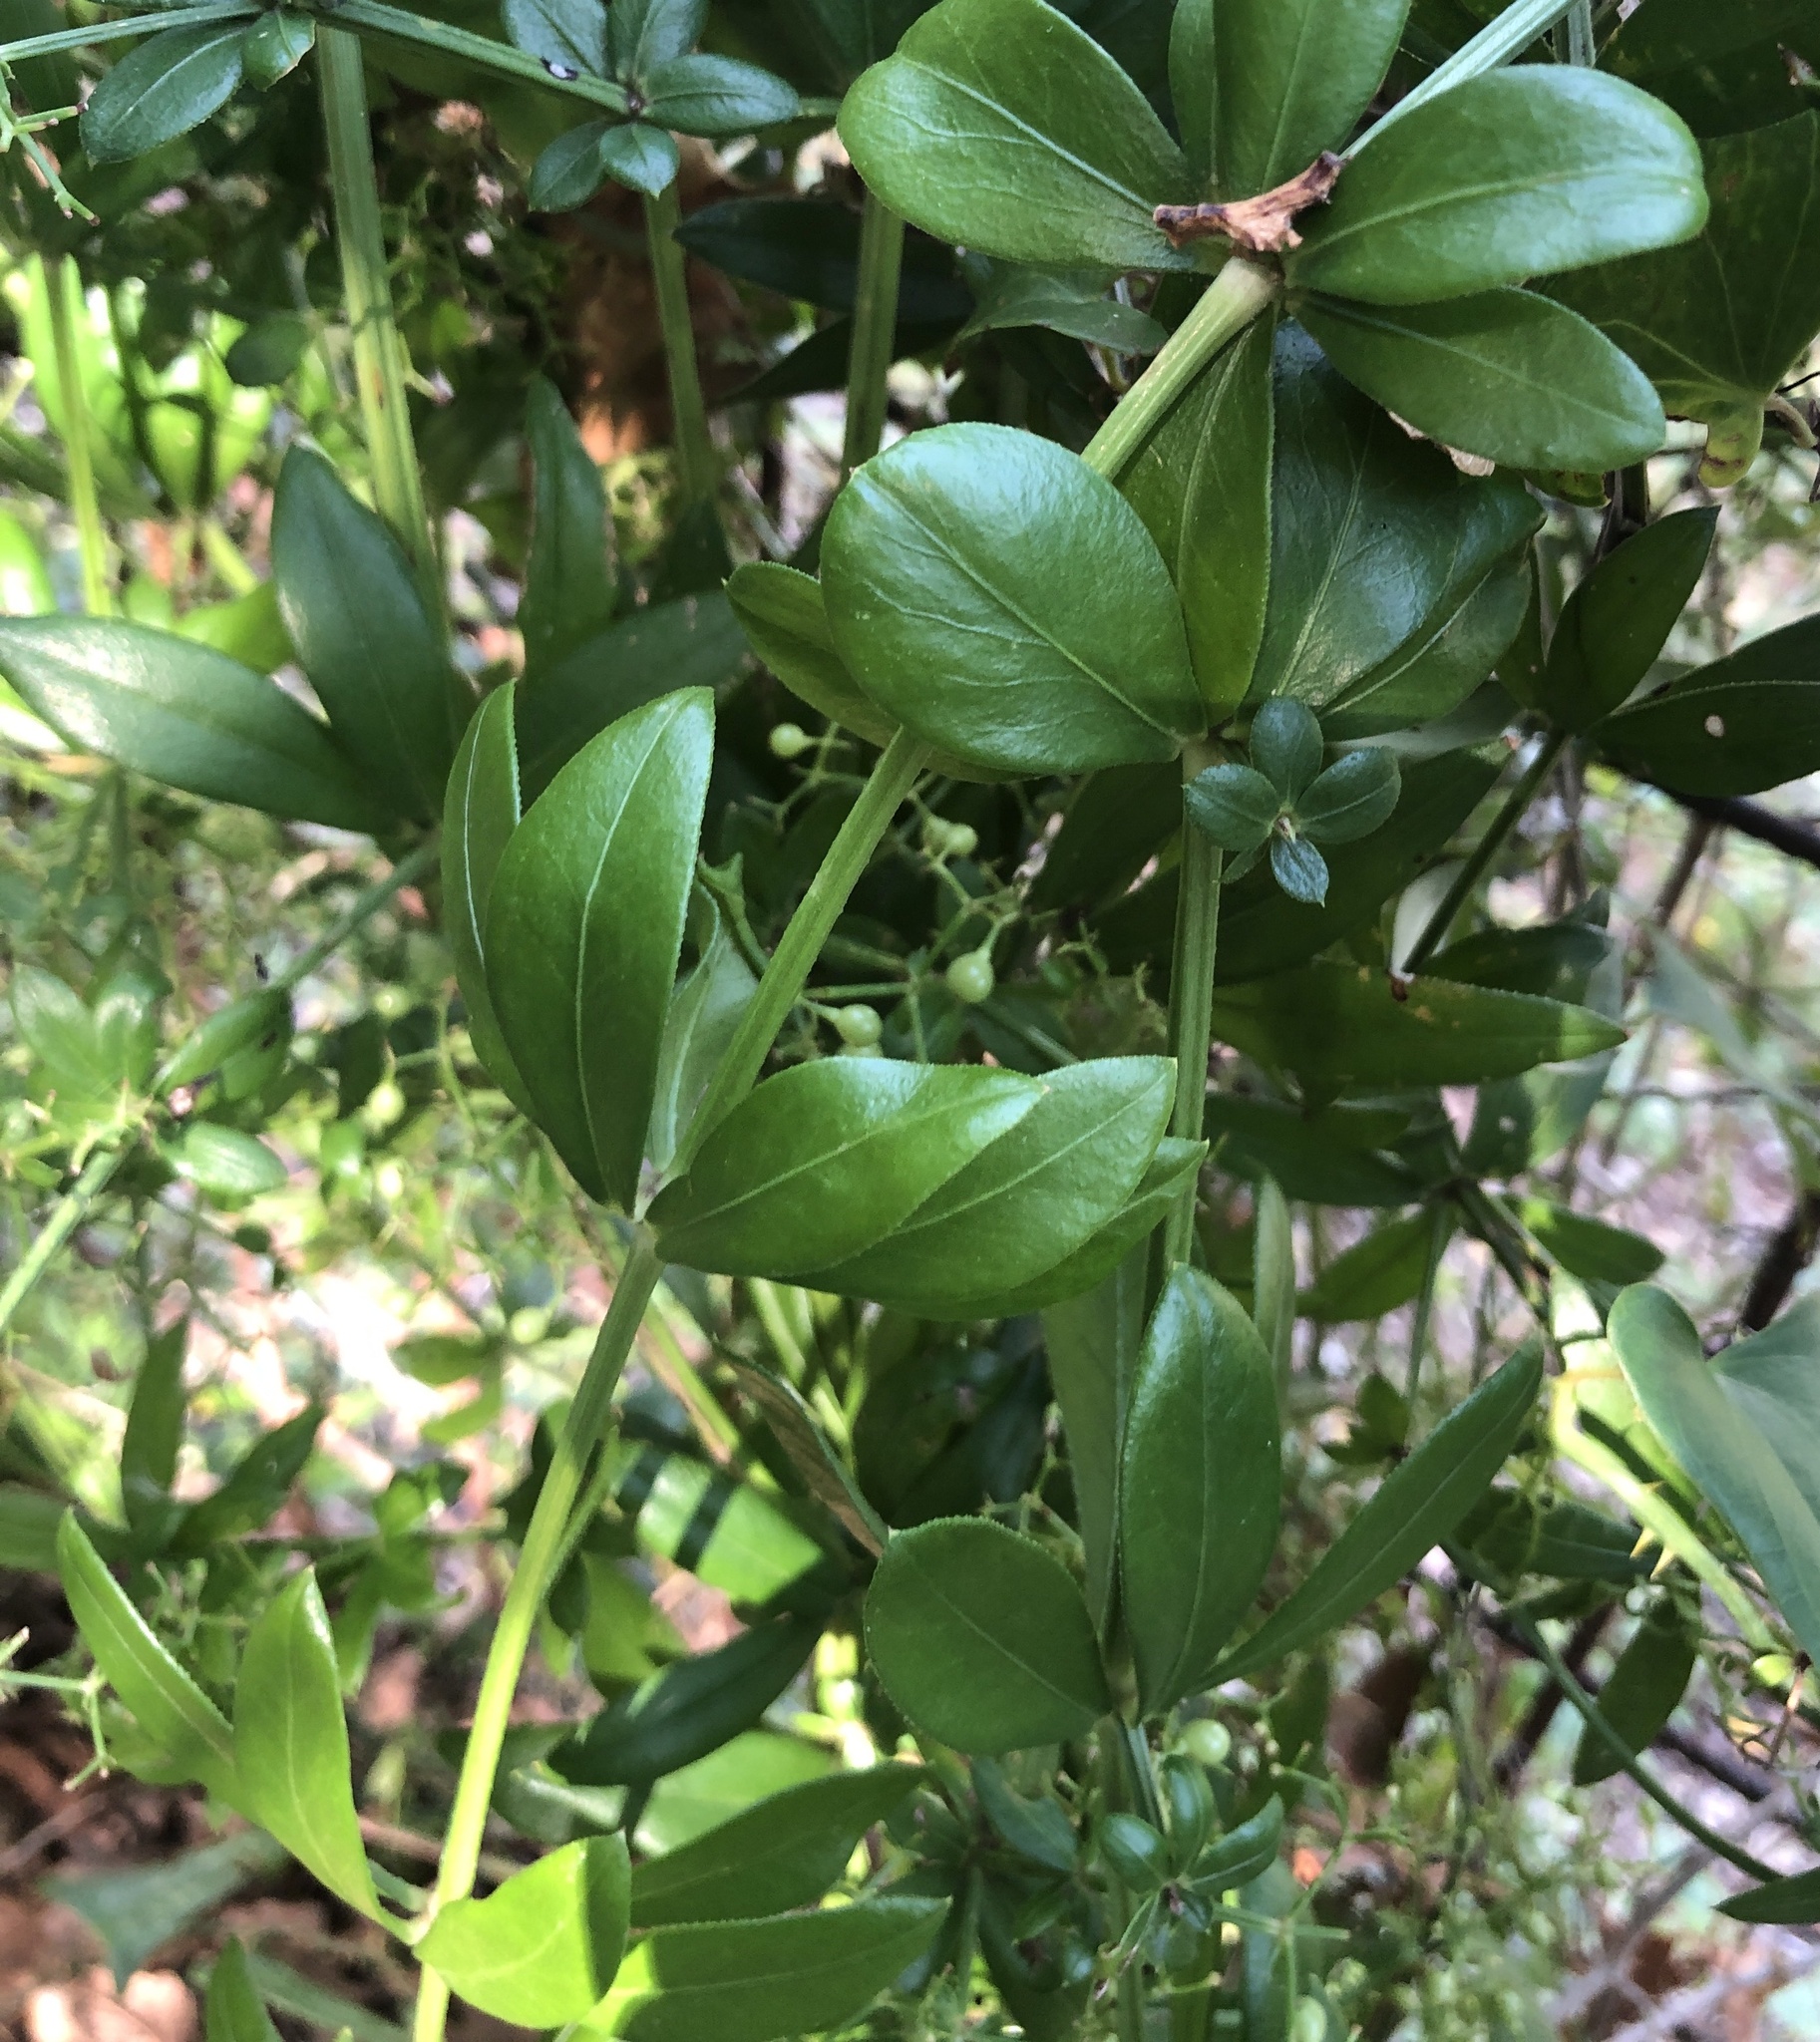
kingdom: Plantae
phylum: Tracheophyta
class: Magnoliopsida
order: Gentianales
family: Rubiaceae
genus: Rubia
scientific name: Rubia peregrina
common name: Wild madder
